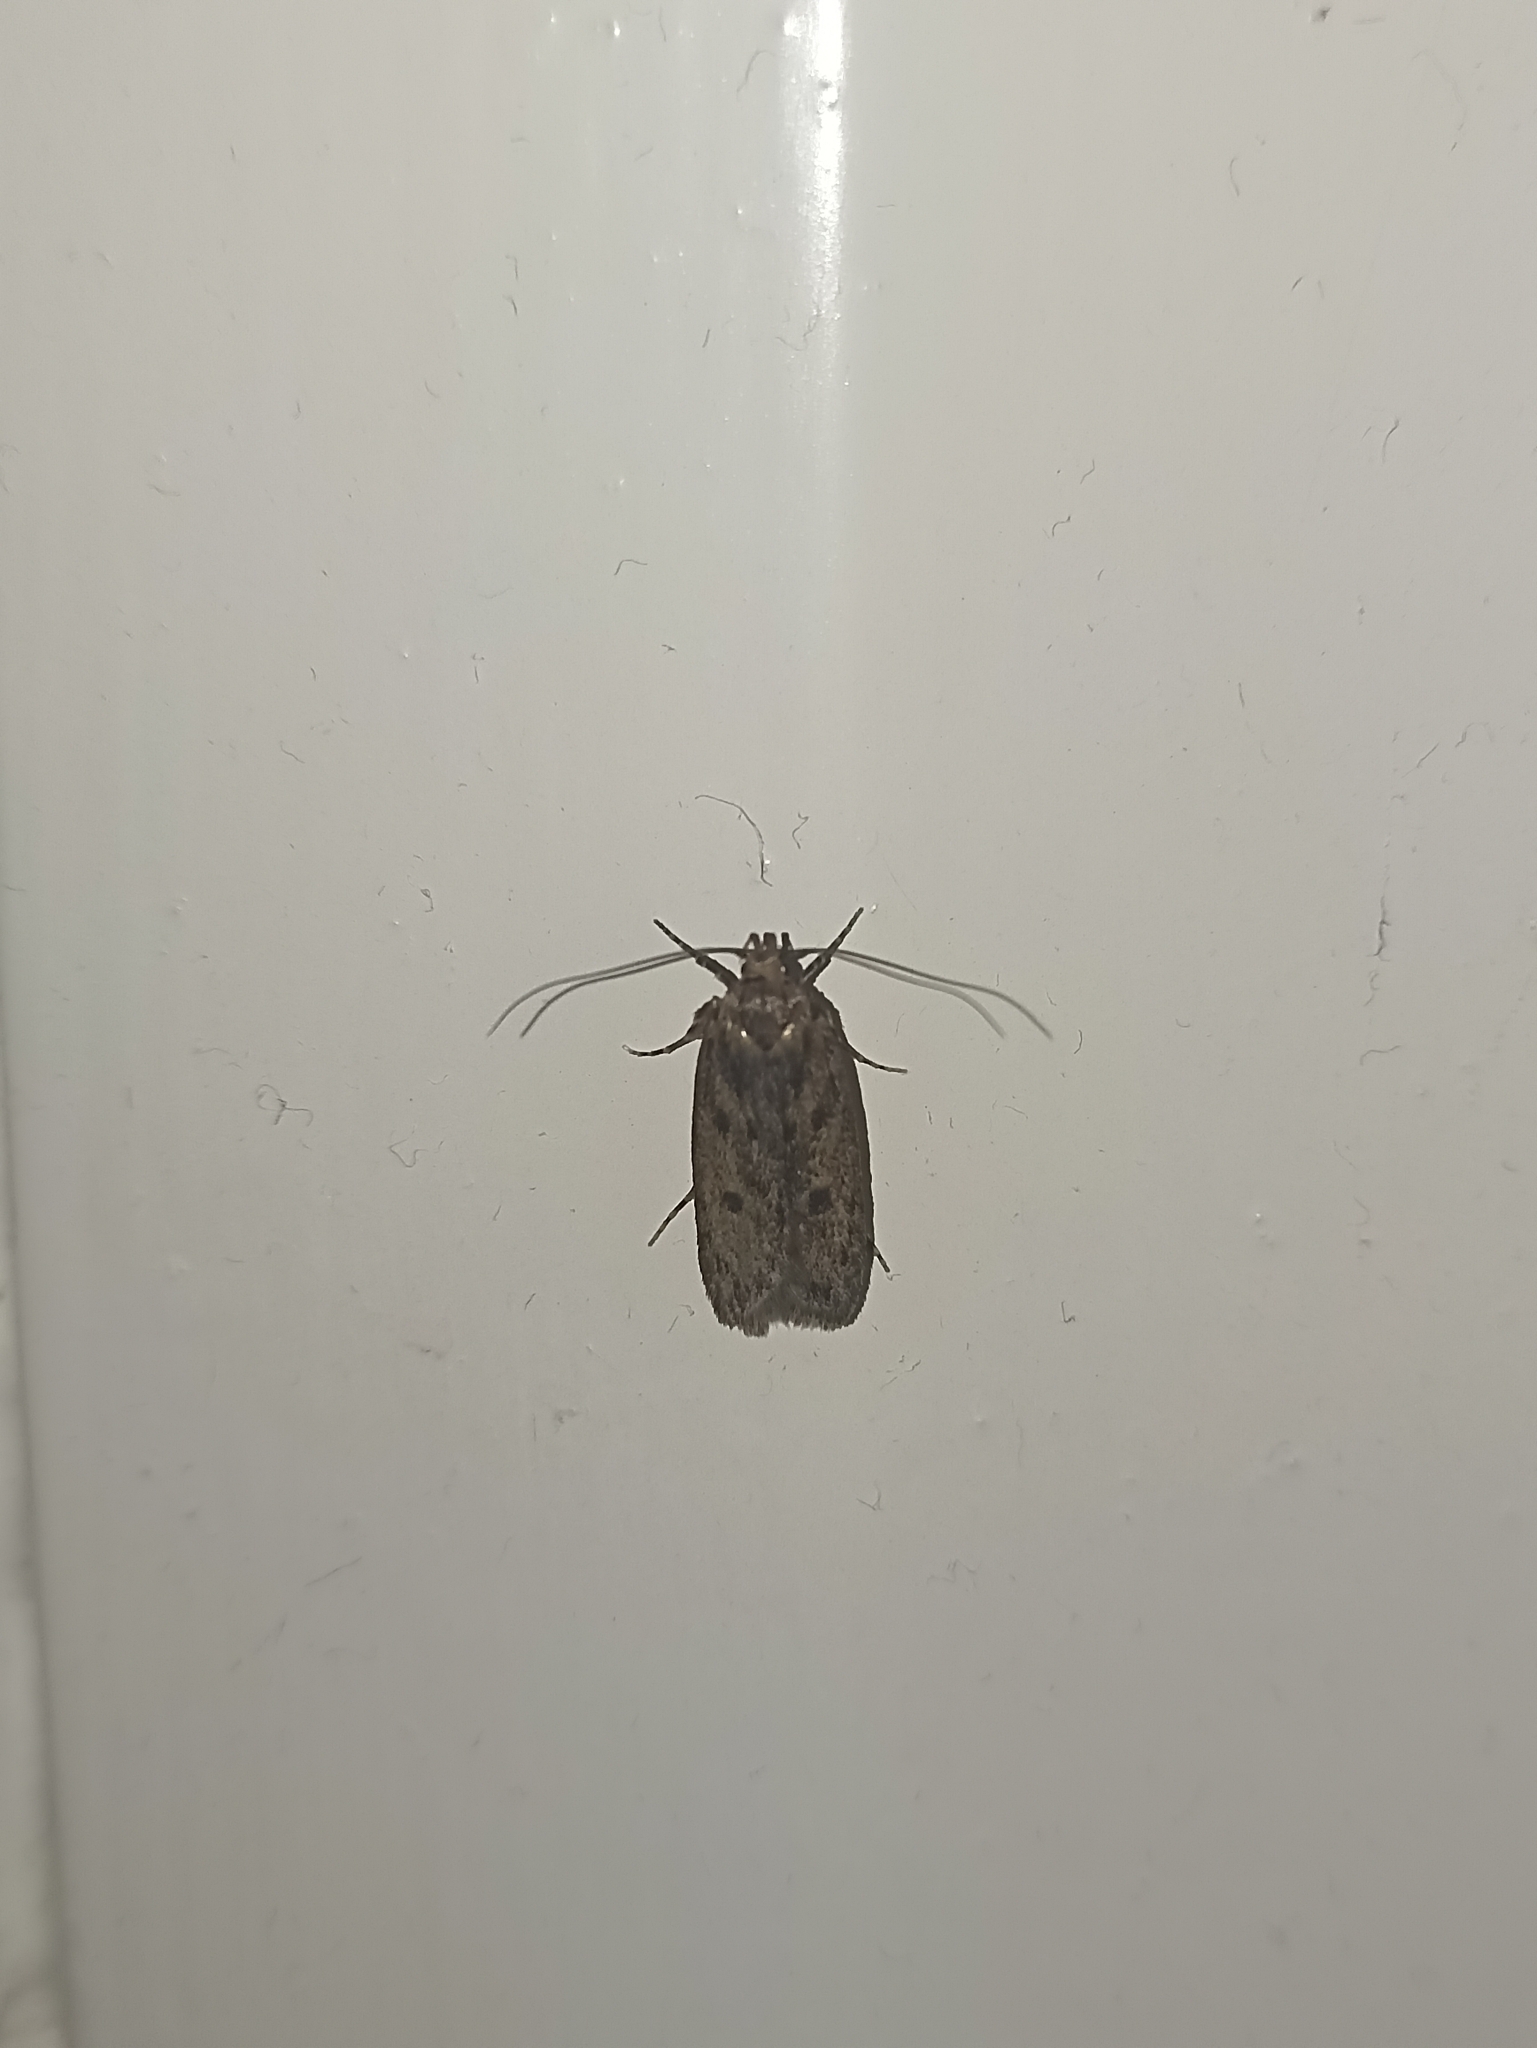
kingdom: Animalia
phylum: Arthropoda
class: Insecta
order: Lepidoptera
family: Oecophoridae
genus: Hofmannophila
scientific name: Hofmannophila pseudospretella
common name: Brown house moth
